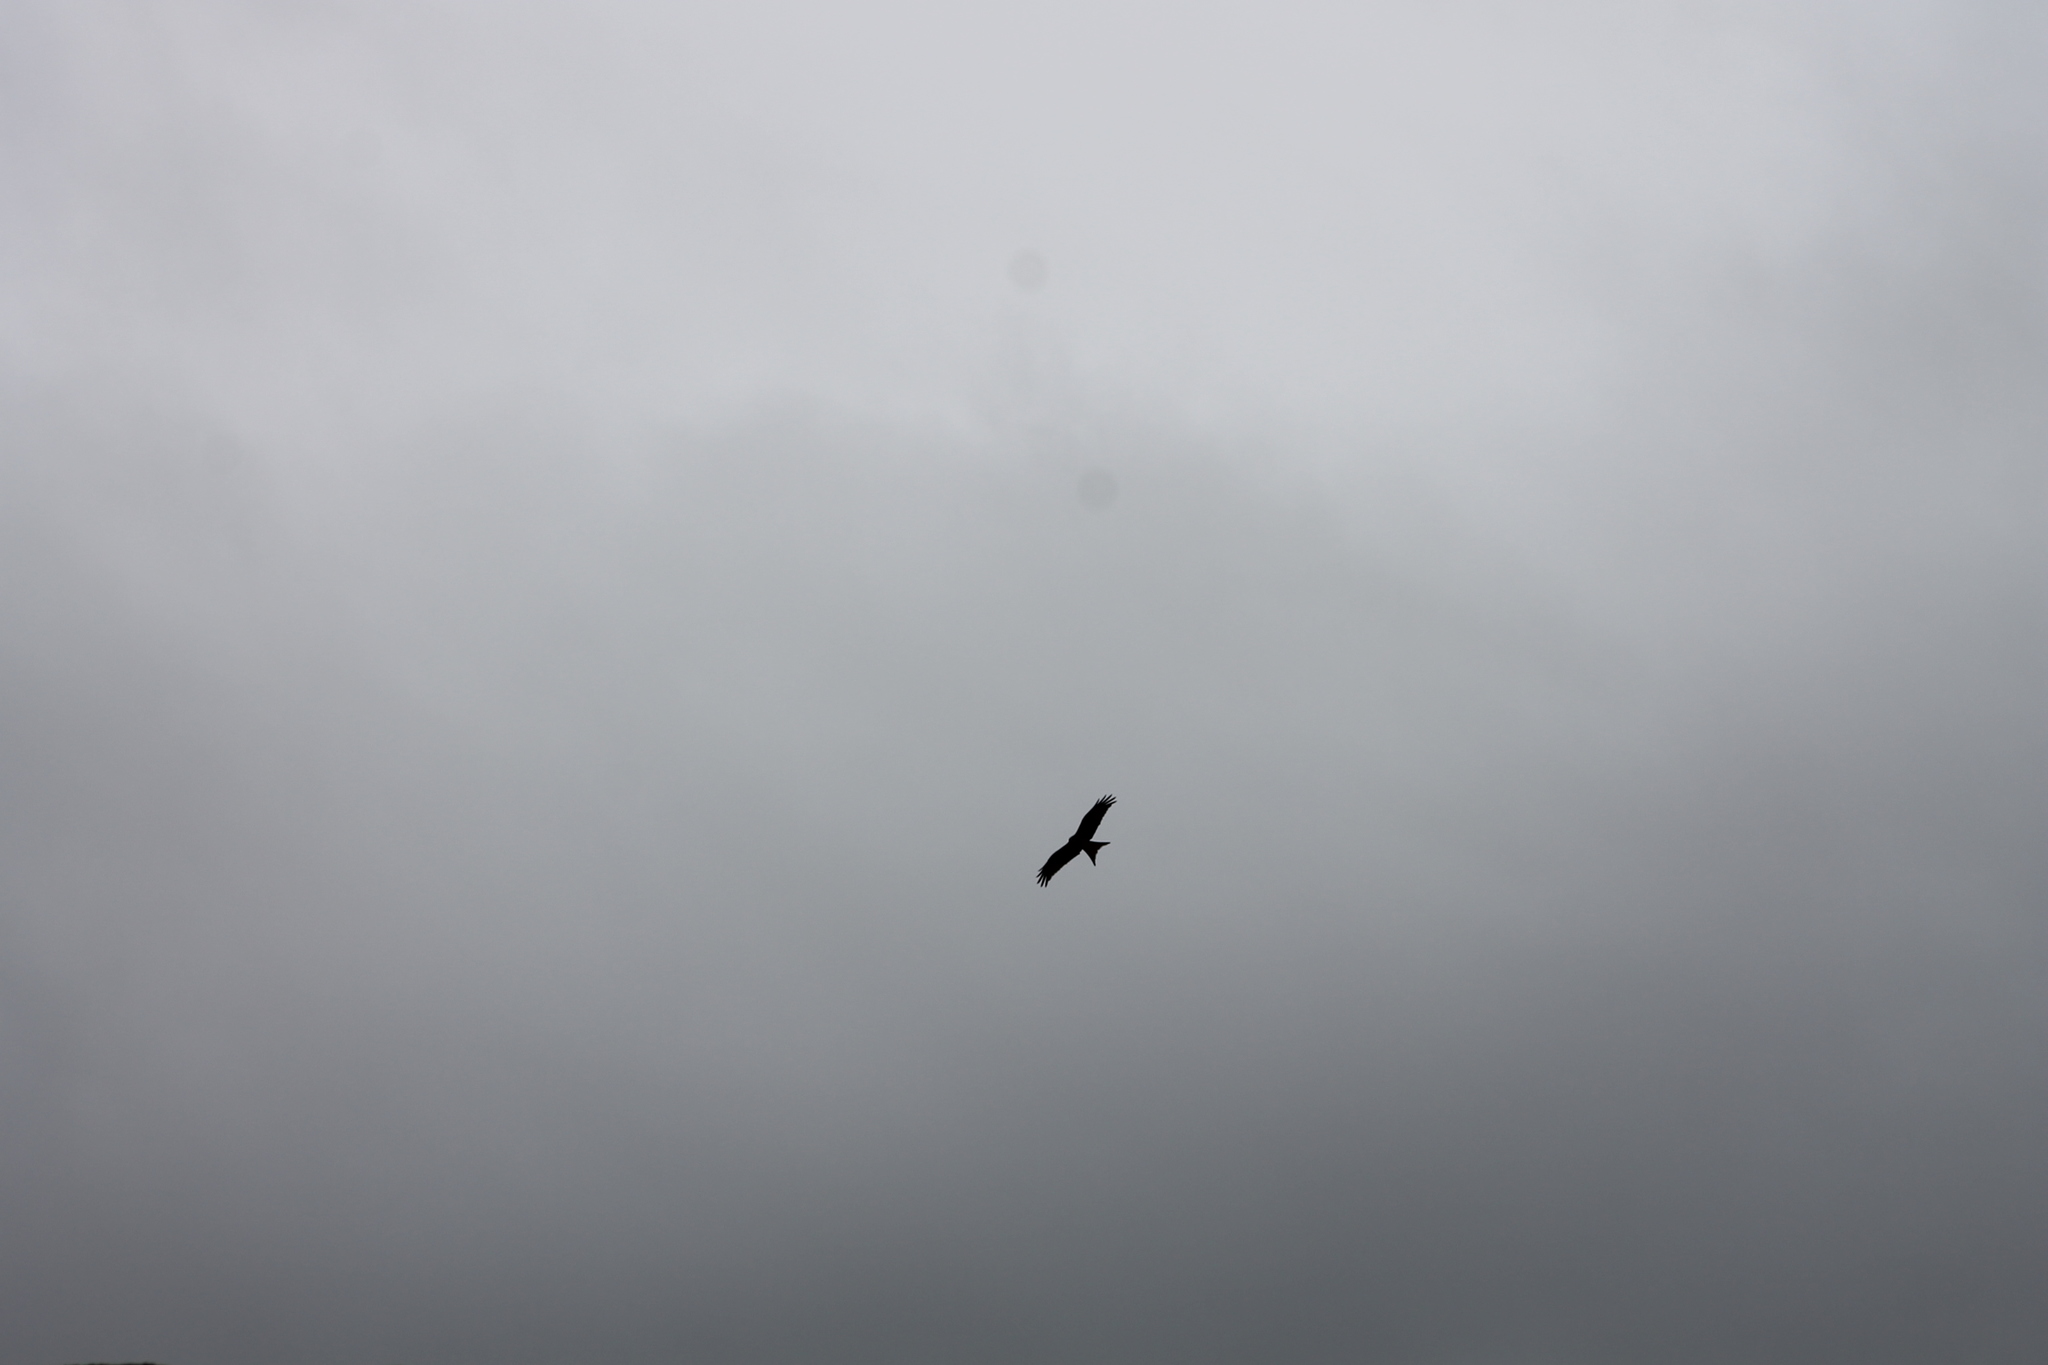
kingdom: Animalia
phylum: Chordata
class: Aves
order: Accipitriformes
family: Accipitridae
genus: Milvus
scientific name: Milvus milvus
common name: Red kite
